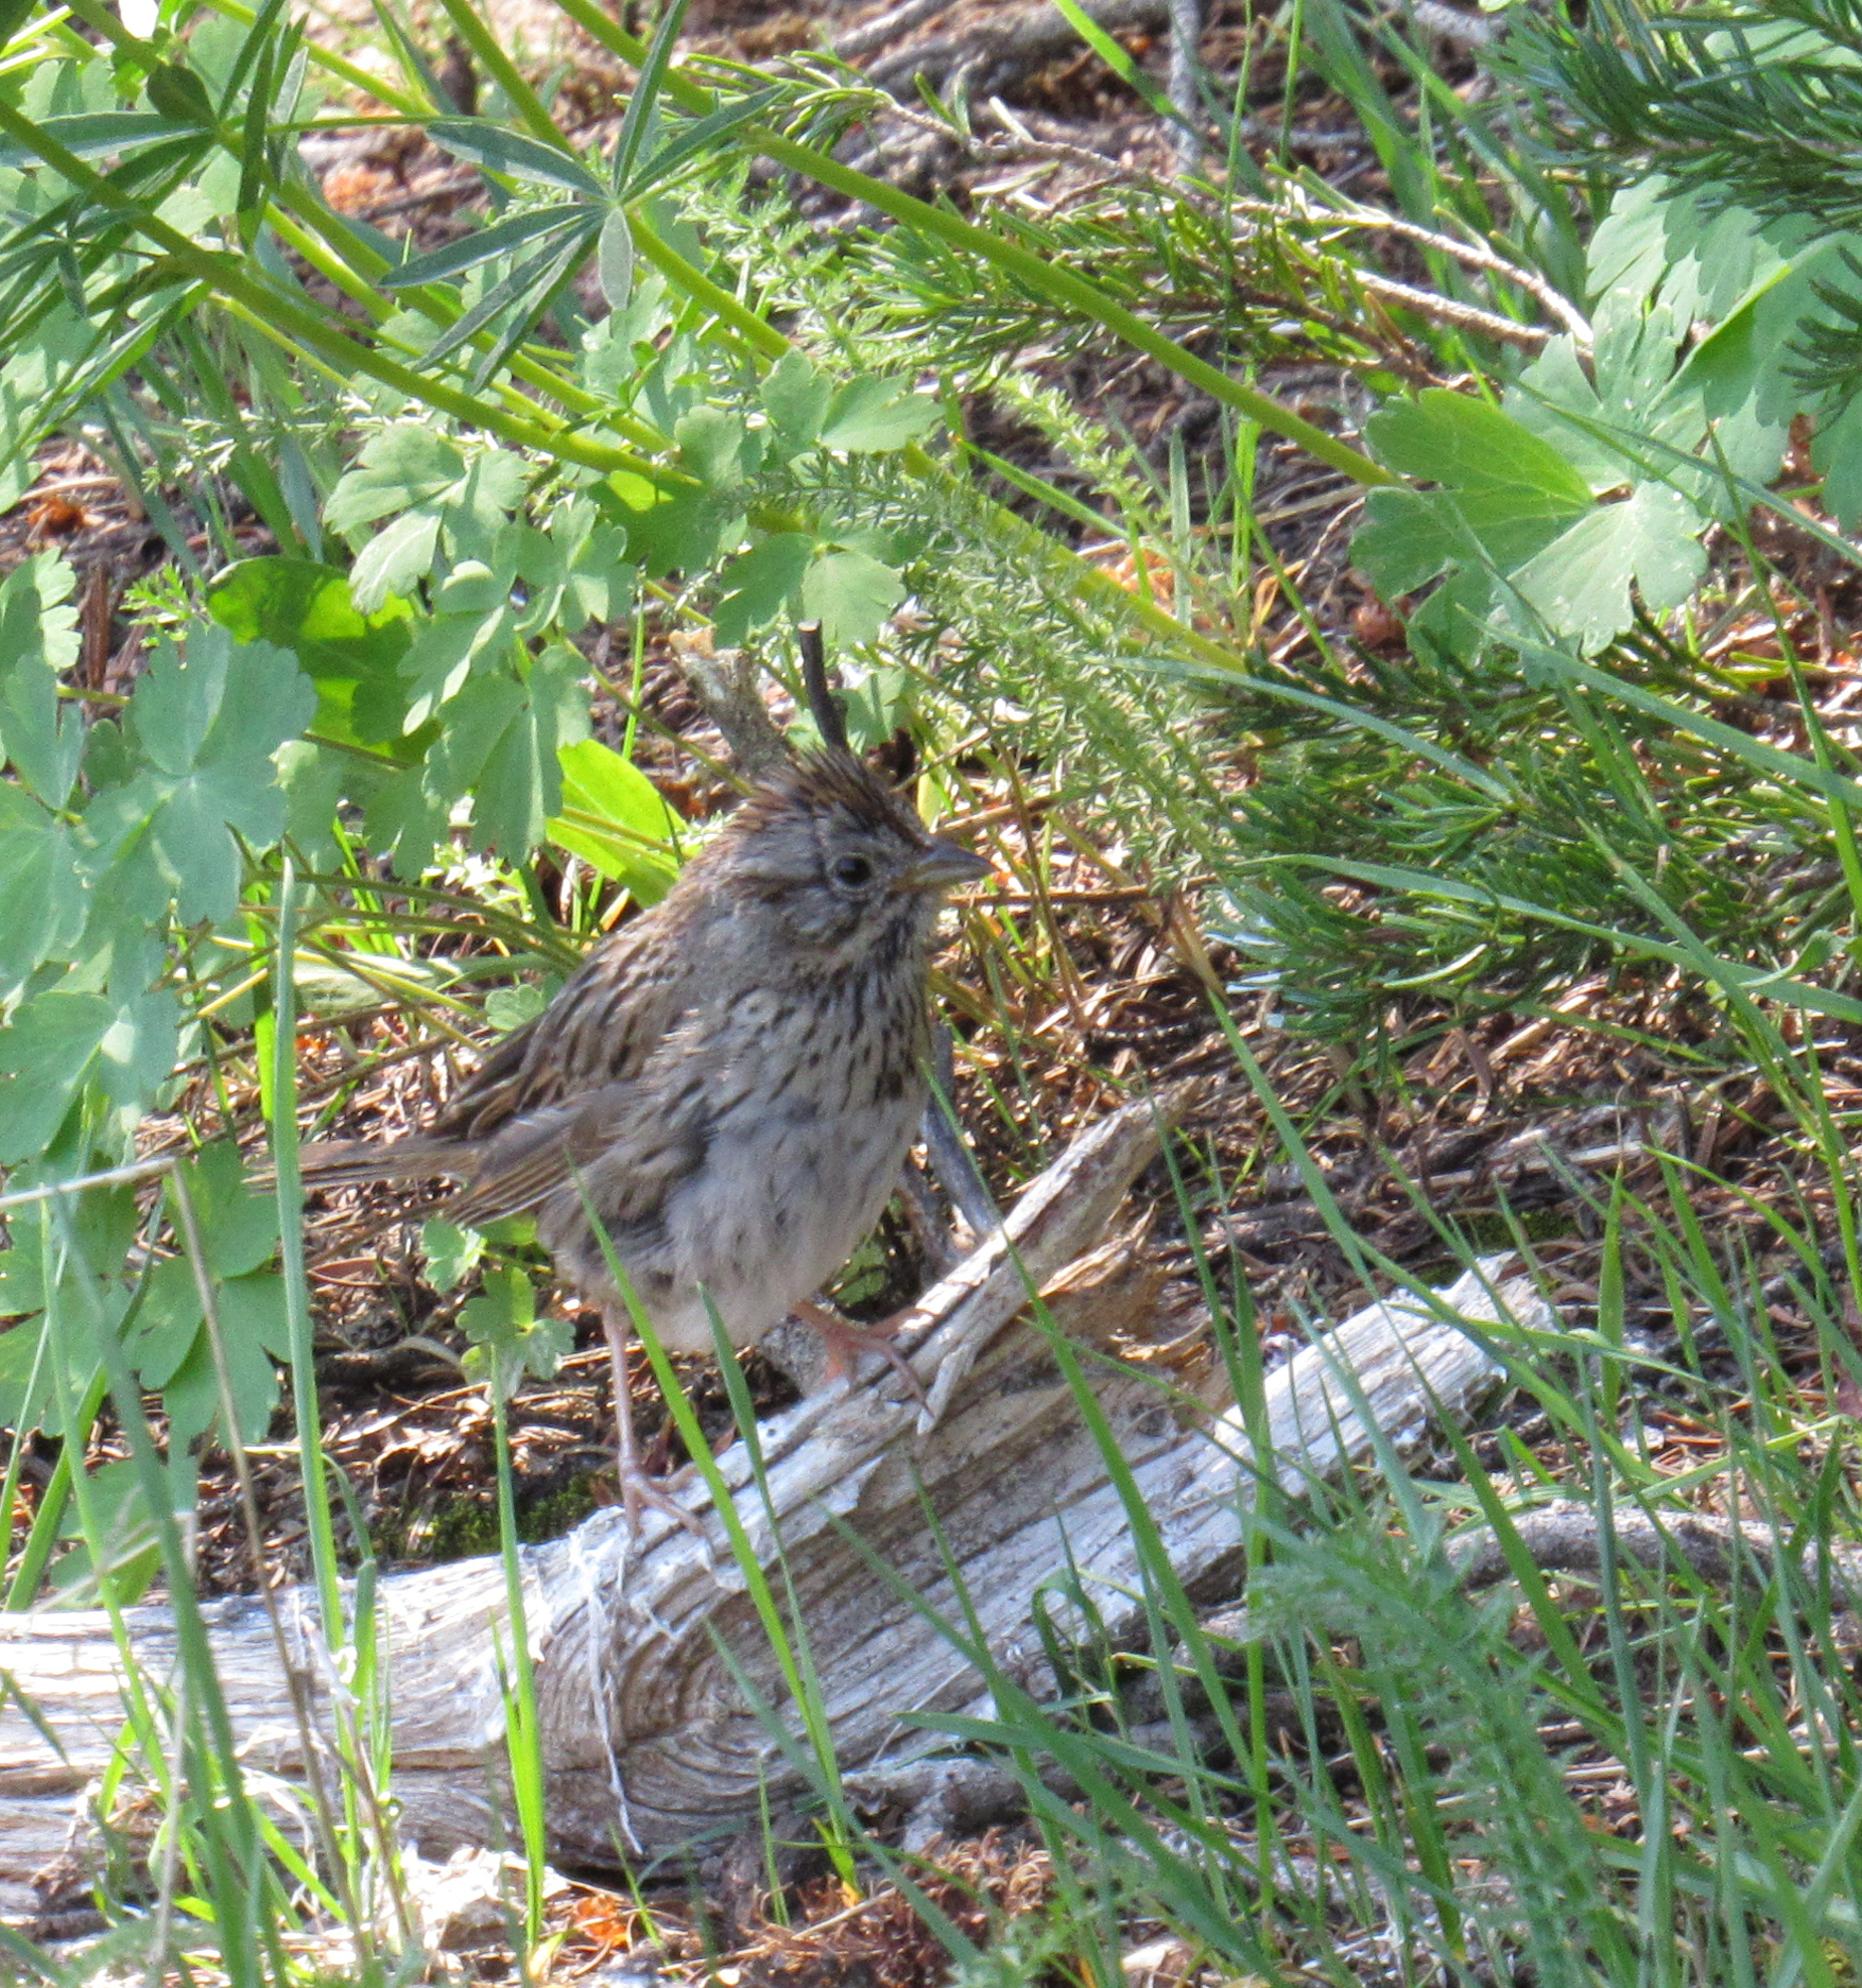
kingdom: Animalia
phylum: Chordata
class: Aves
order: Passeriformes
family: Passerellidae
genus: Melospiza
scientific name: Melospiza lincolnii
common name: Lincoln's sparrow
